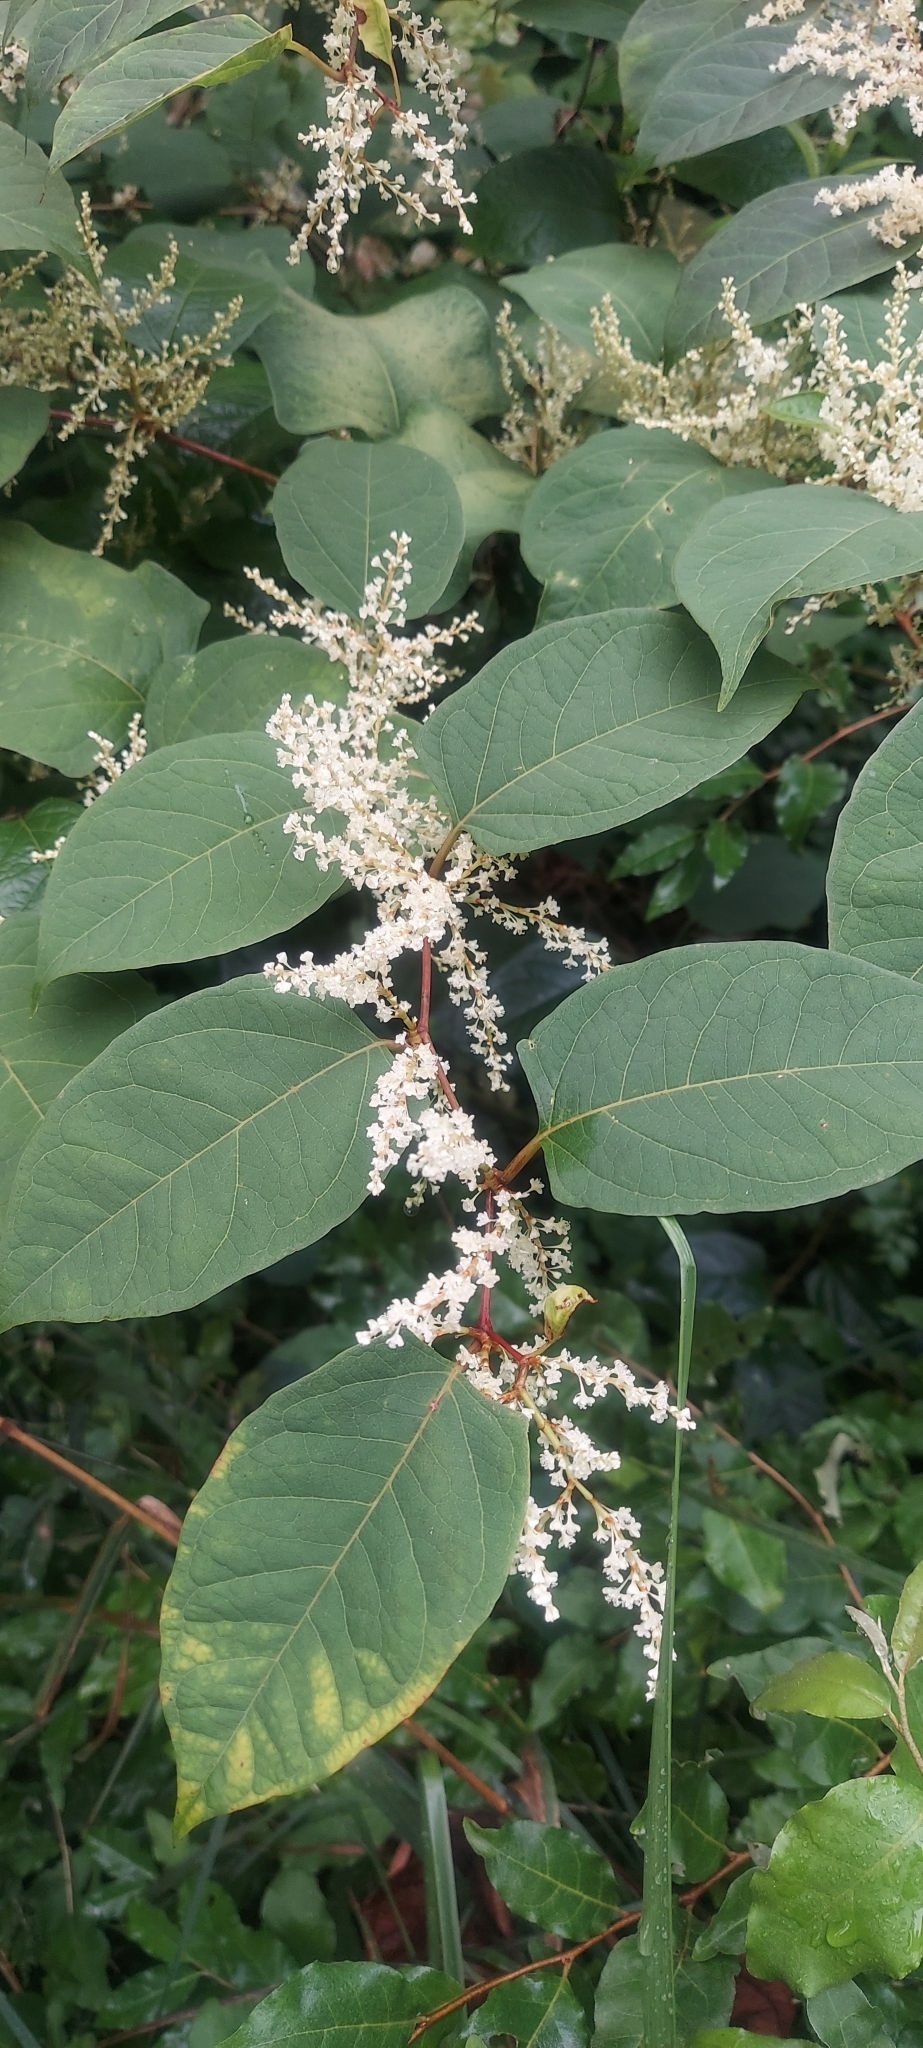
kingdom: Plantae
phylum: Tracheophyta
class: Magnoliopsida
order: Caryophyllales
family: Polygonaceae
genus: Reynoutria
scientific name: Reynoutria japonica
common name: Japanese knotweed
